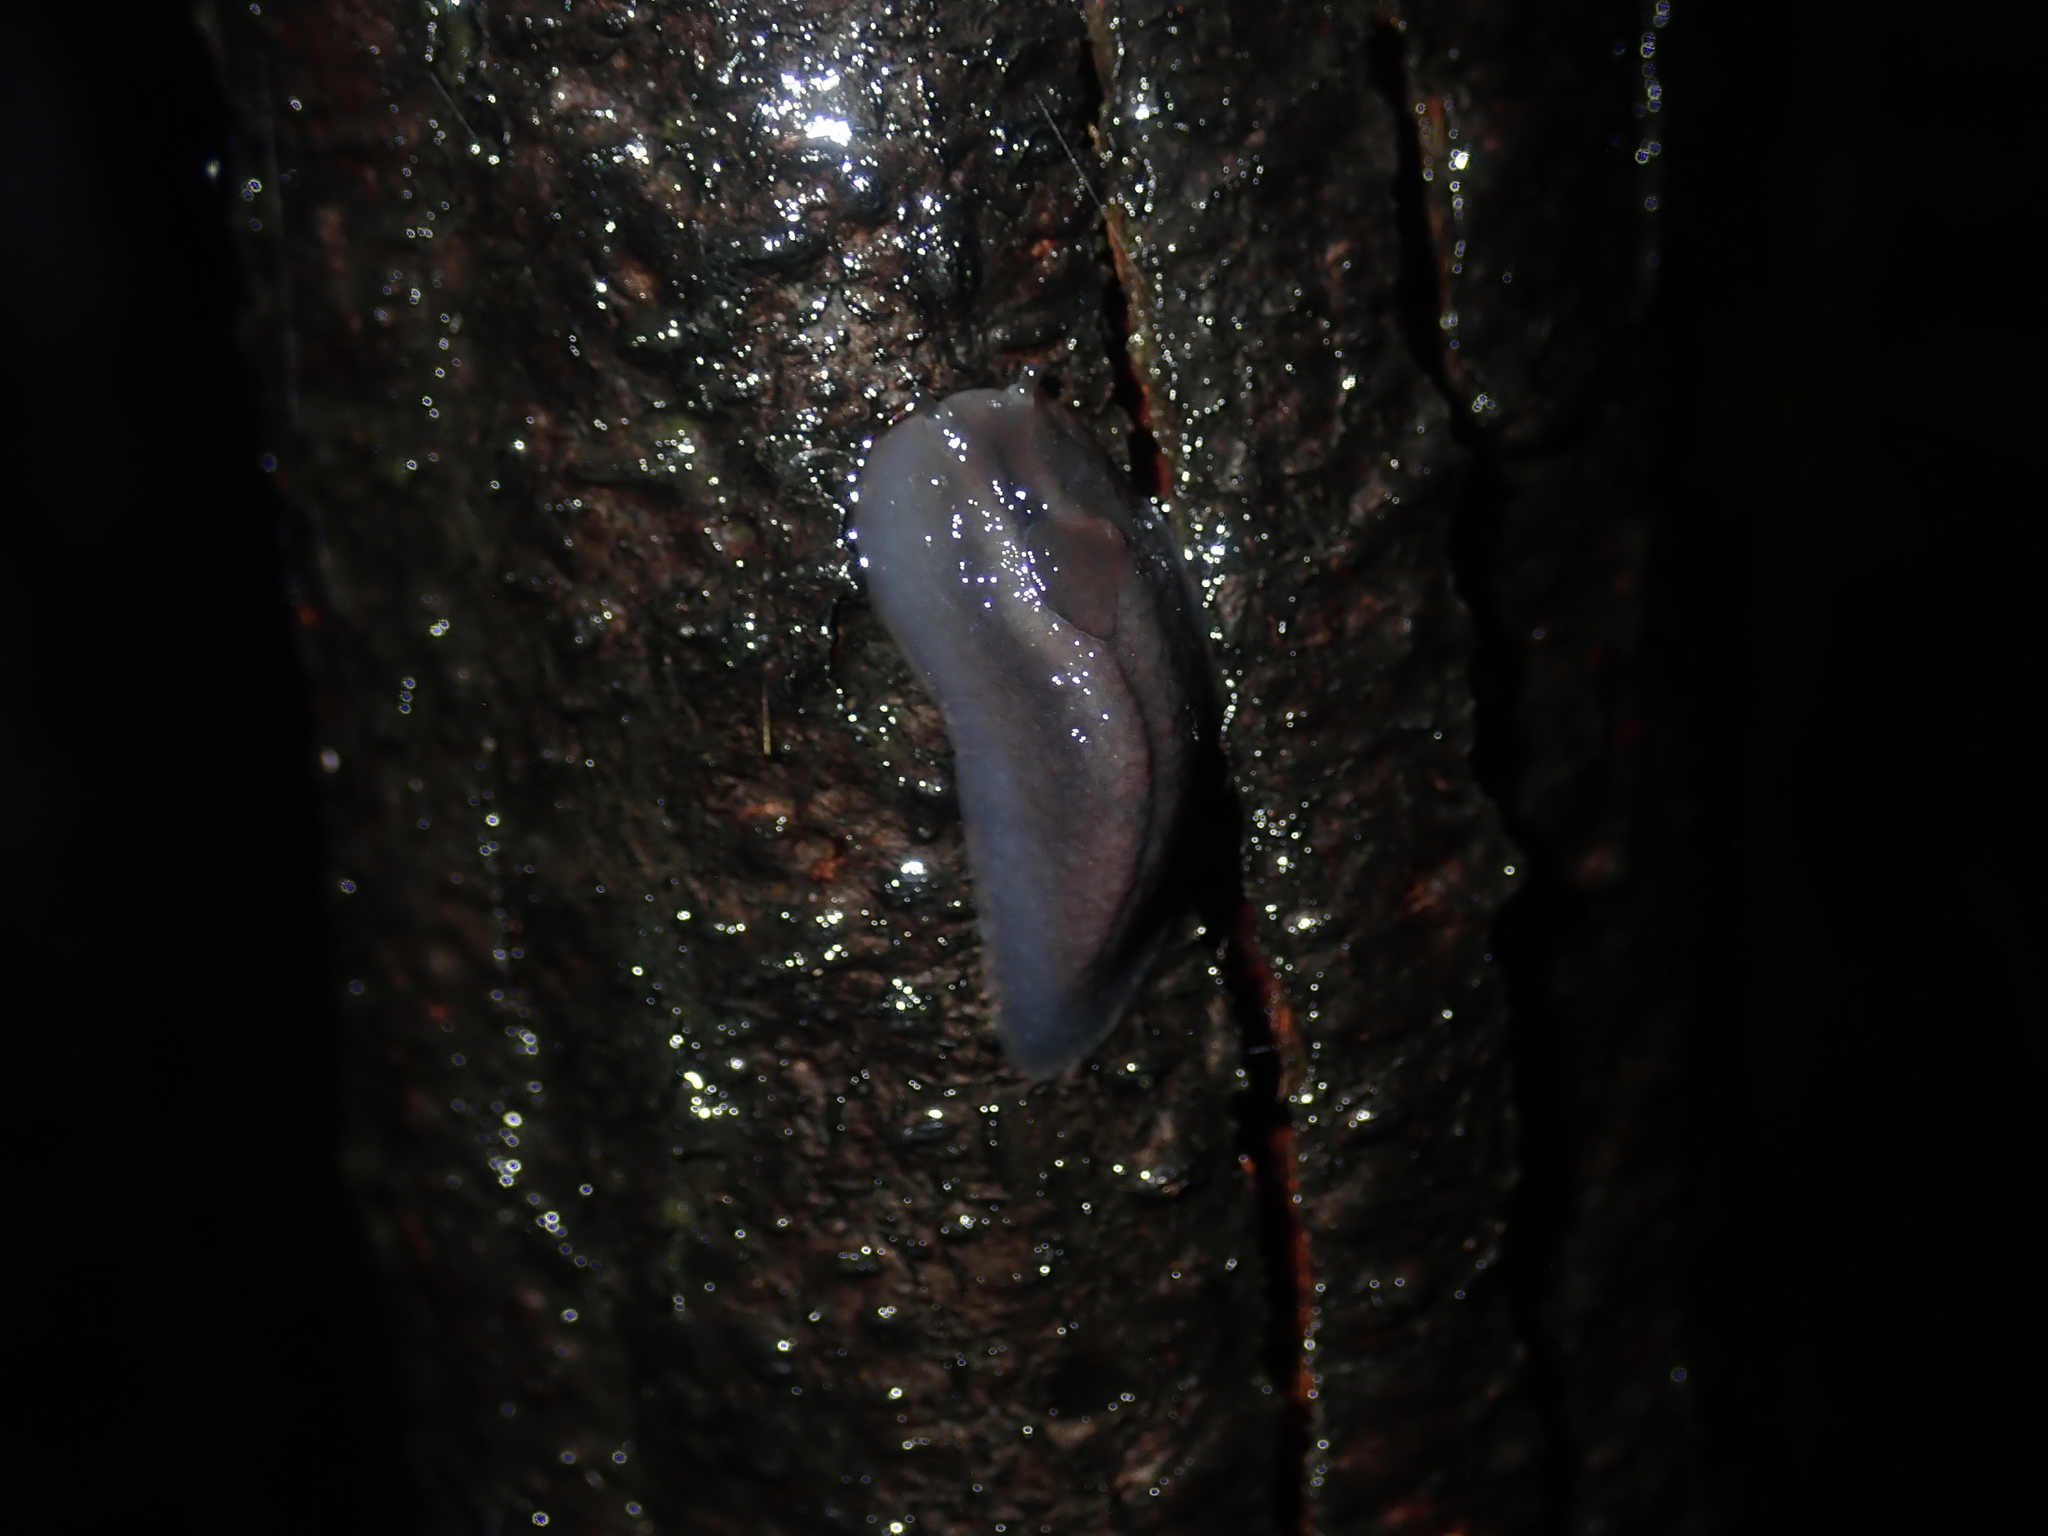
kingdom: Animalia
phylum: Mollusca
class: Gastropoda
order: Stylommatophora
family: Athoracophoridae
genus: Triboniophorus
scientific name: Triboniophorus graeffei
